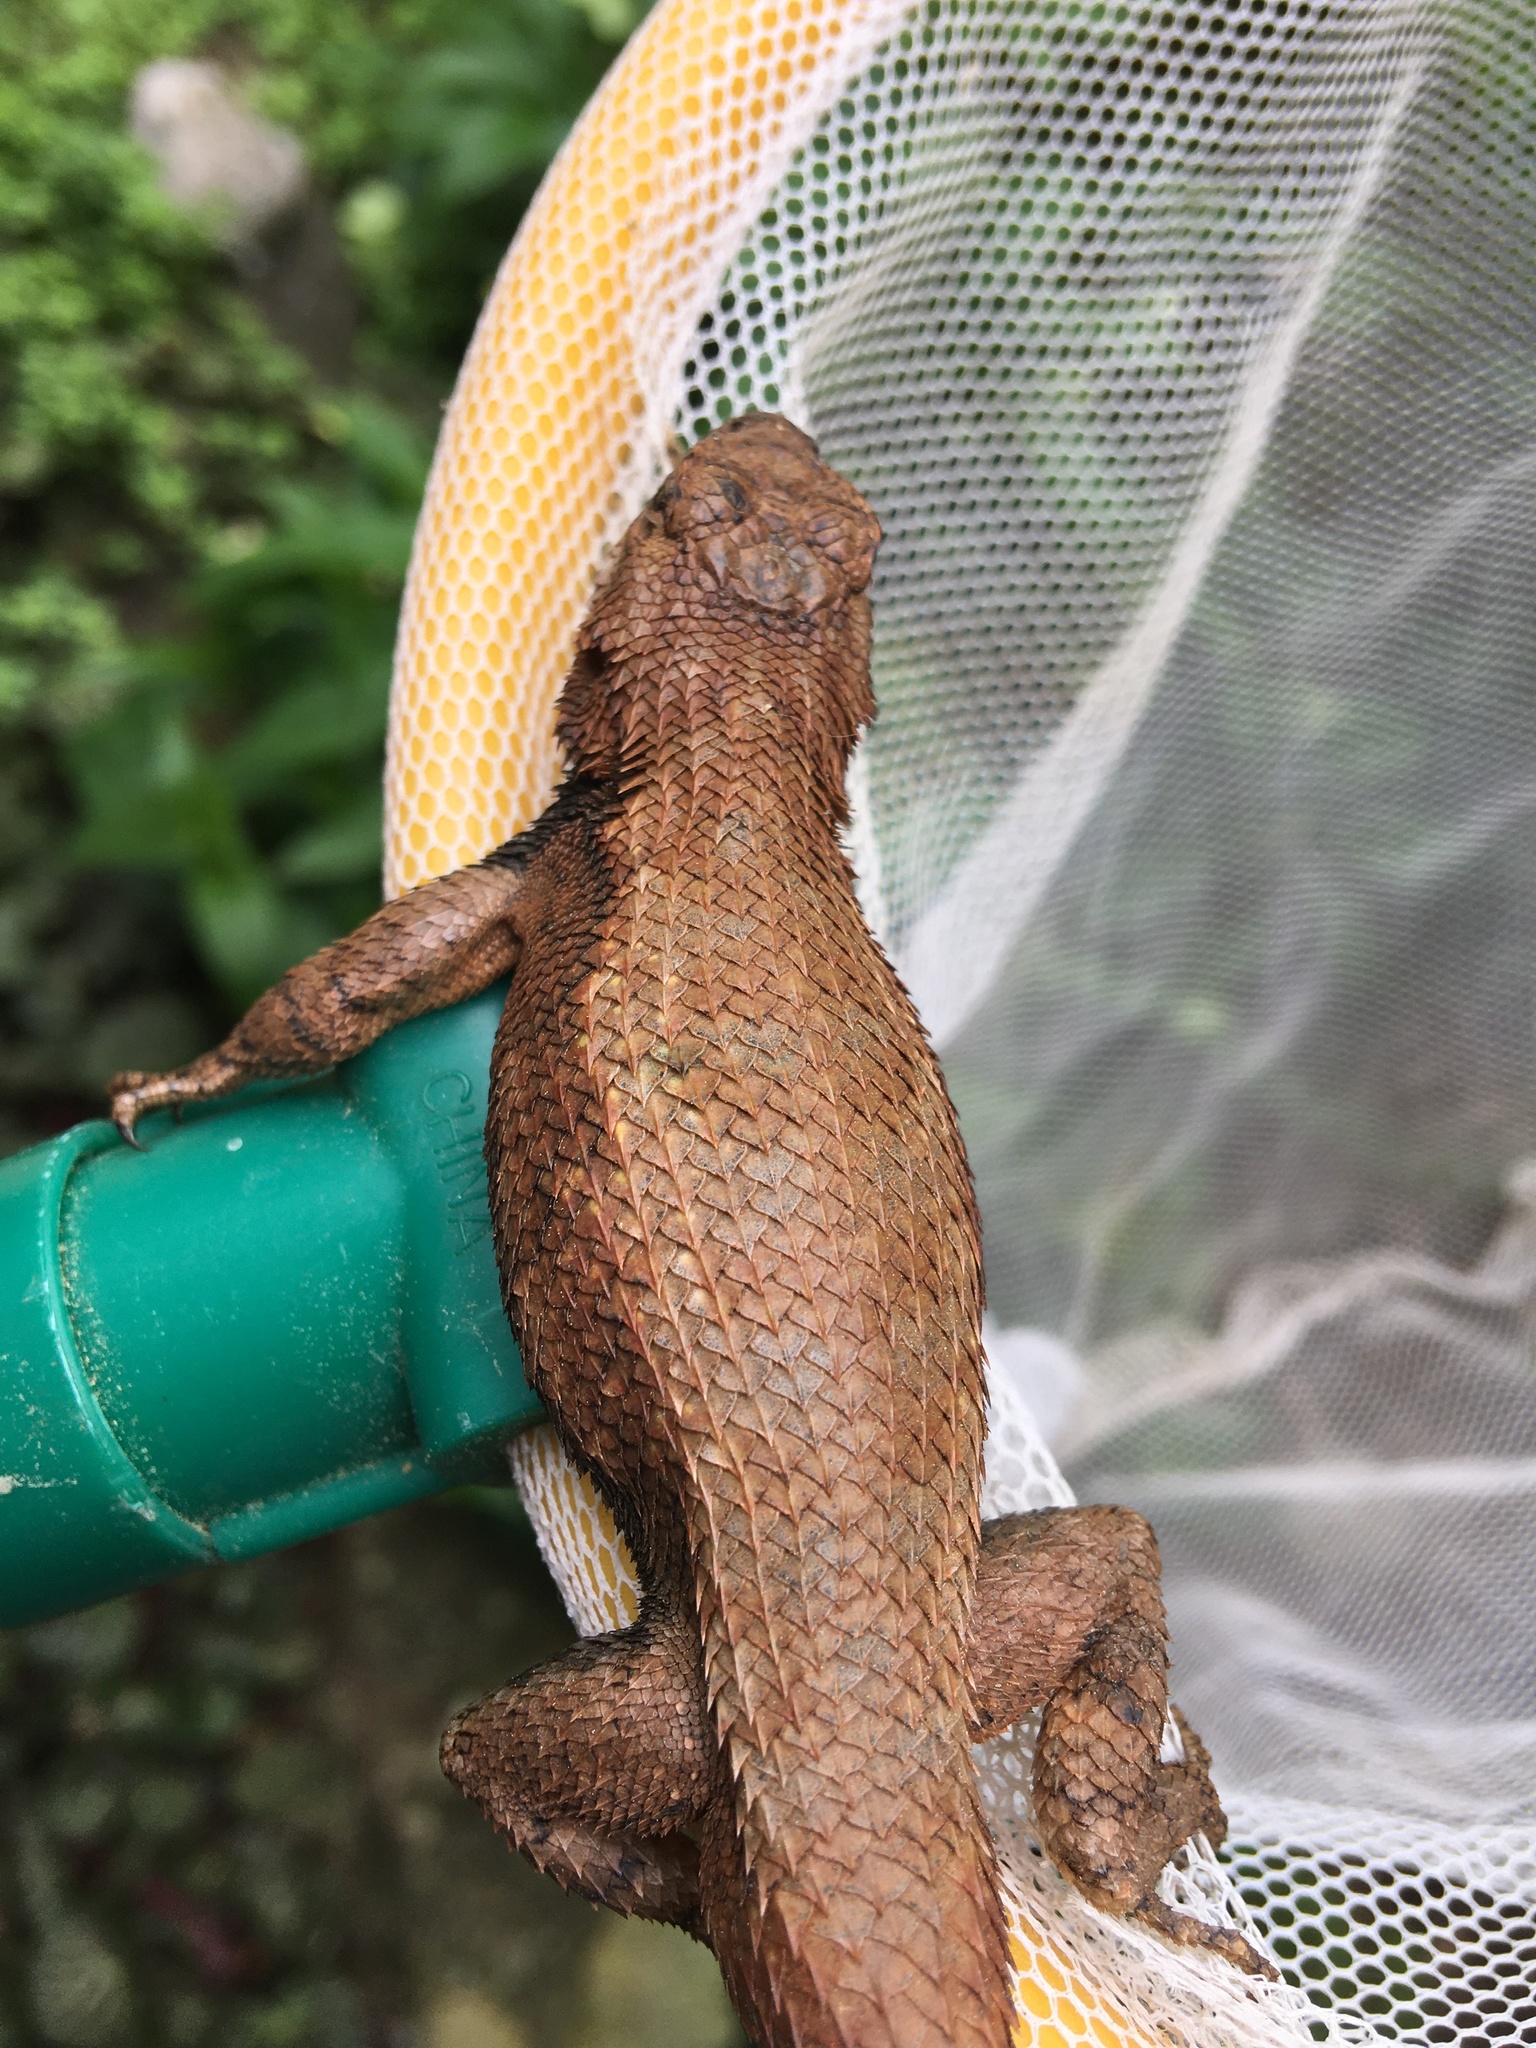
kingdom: Animalia
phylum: Chordata
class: Squamata
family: Phrynosomatidae
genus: Sceloporus
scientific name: Sceloporus undulatus
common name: Eastern fence lizard
